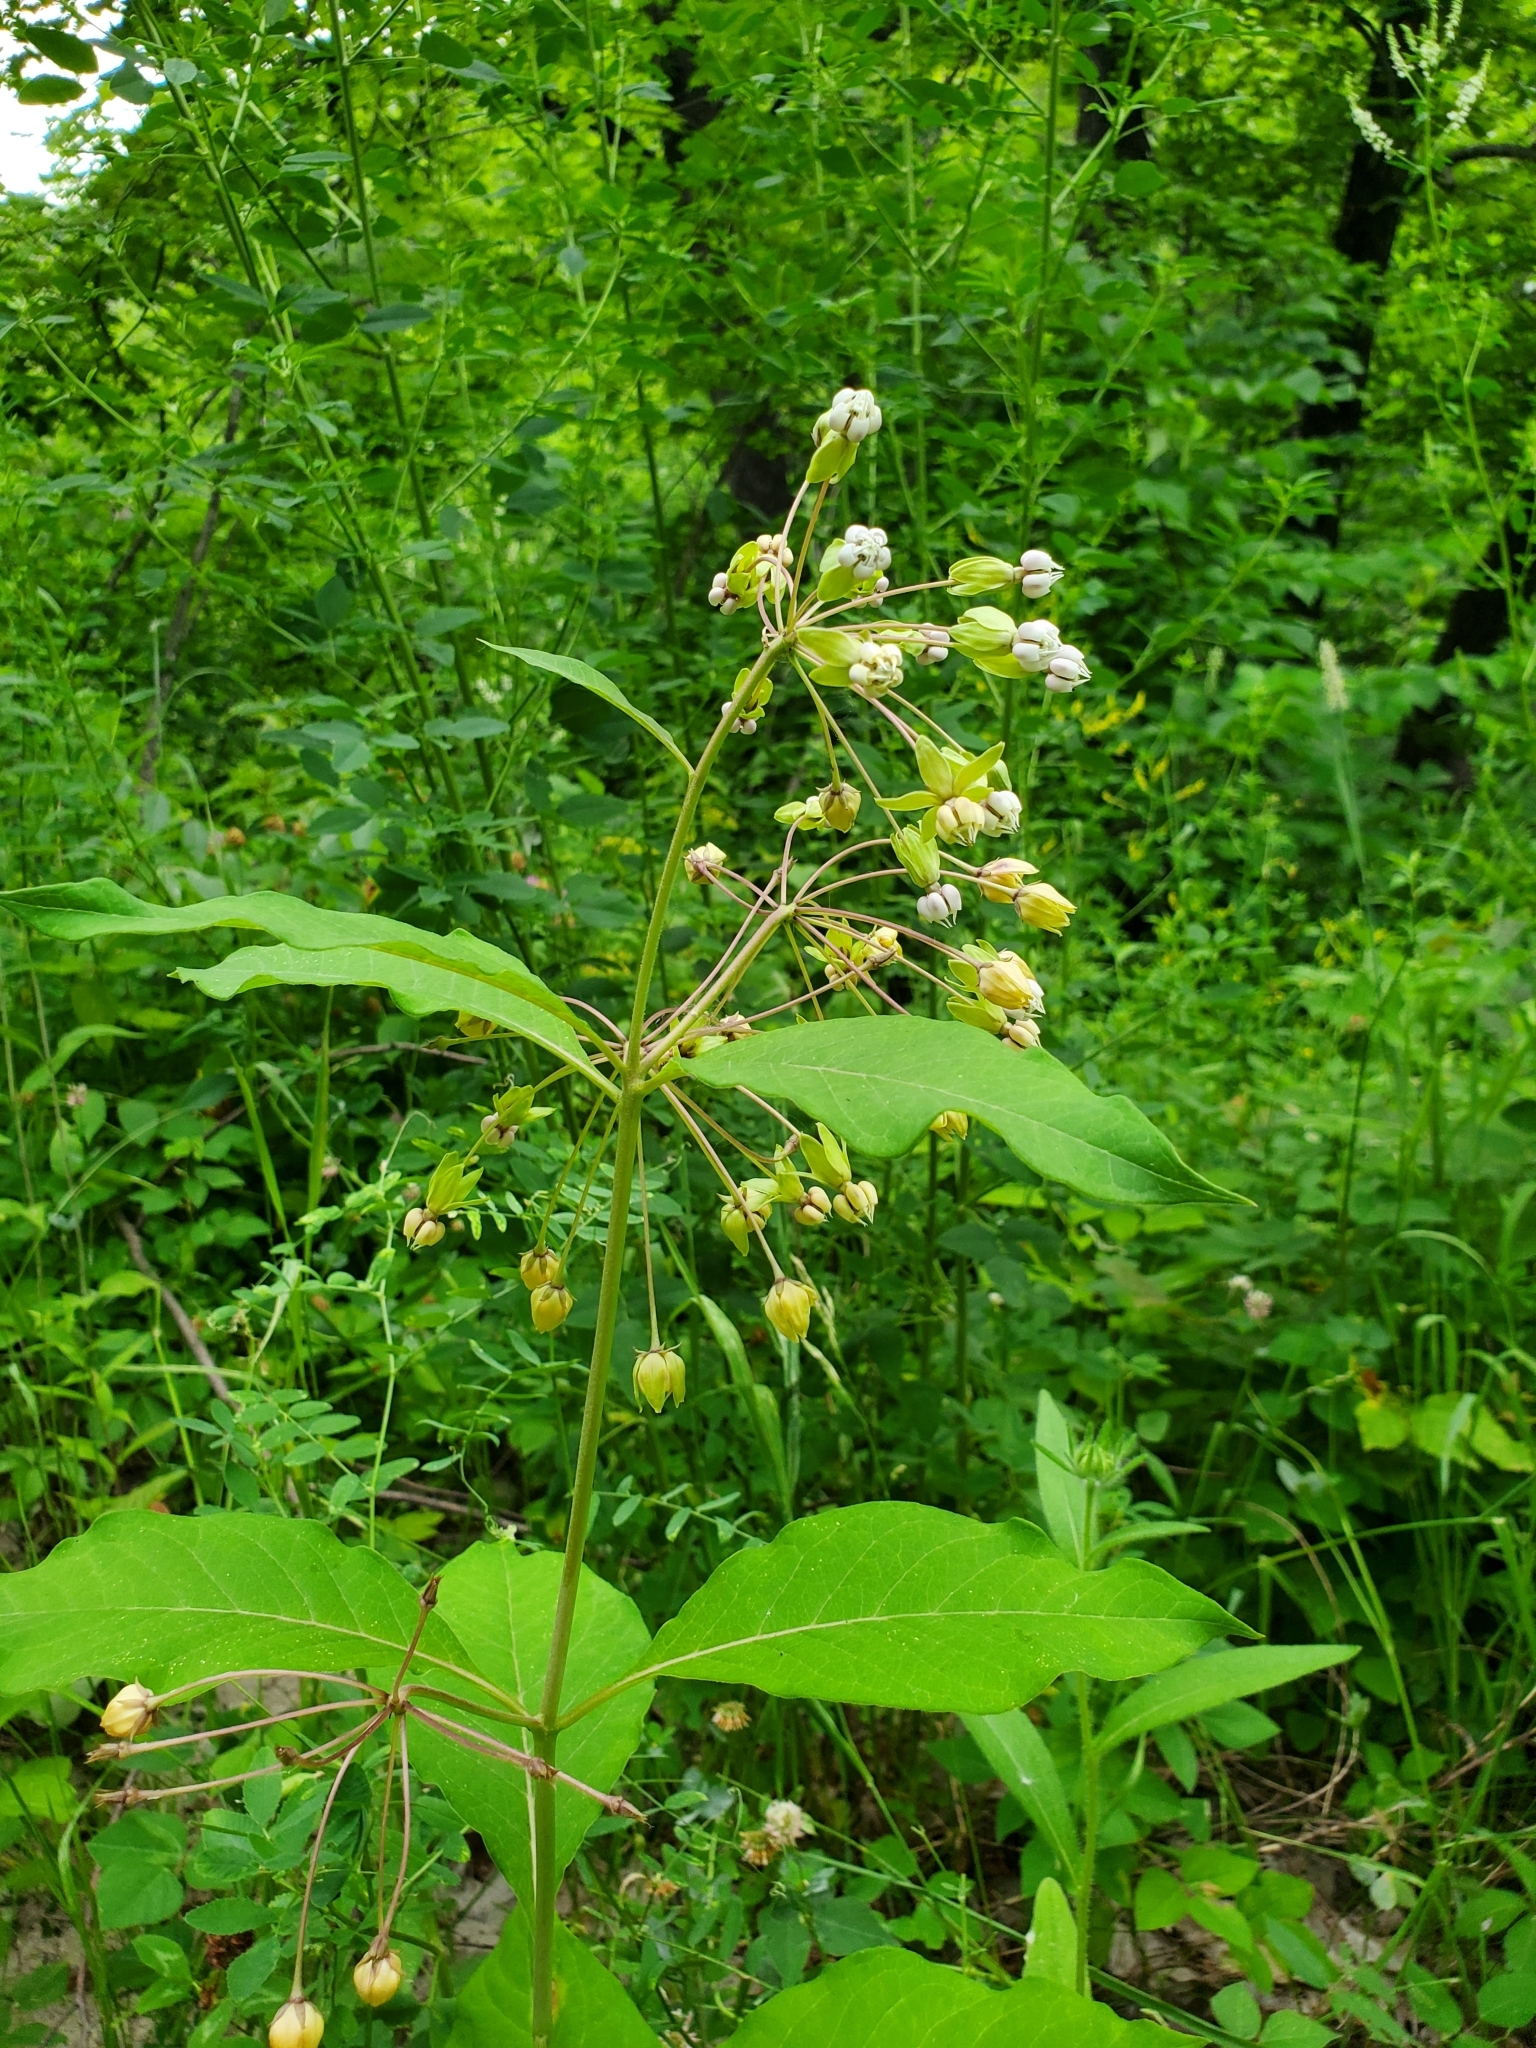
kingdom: Plantae
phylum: Tracheophyta
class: Magnoliopsida
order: Gentianales
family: Apocynaceae
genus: Asclepias
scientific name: Asclepias exaltata
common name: Poke milkweed
